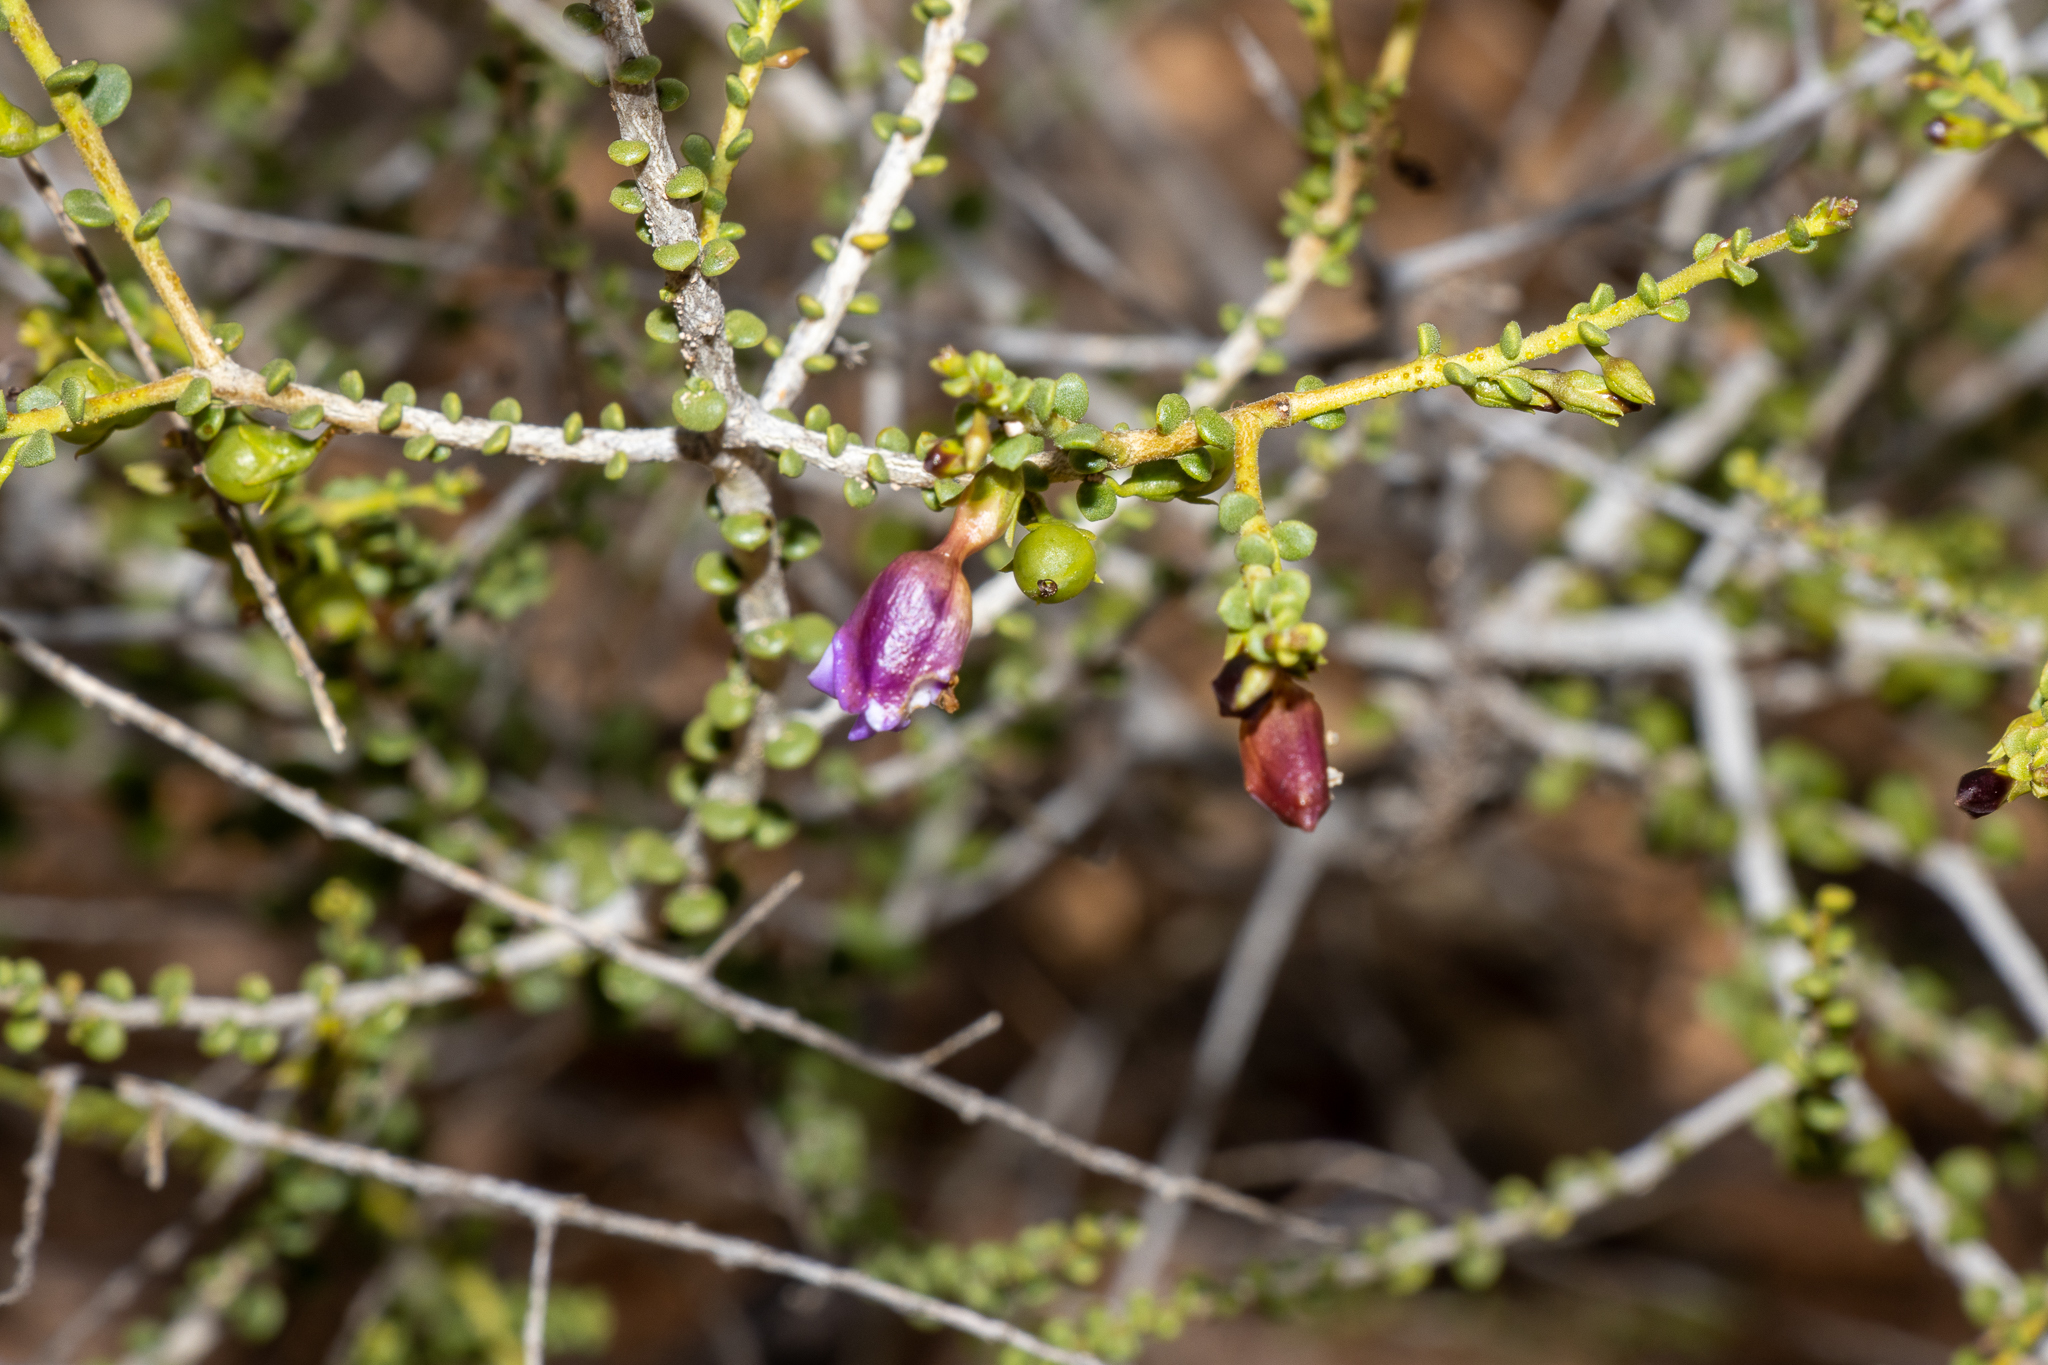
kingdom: Plantae
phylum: Tracheophyta
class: Magnoliopsida
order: Asterales
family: Goodeniaceae
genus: Scaevola
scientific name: Scaevola spinescens
